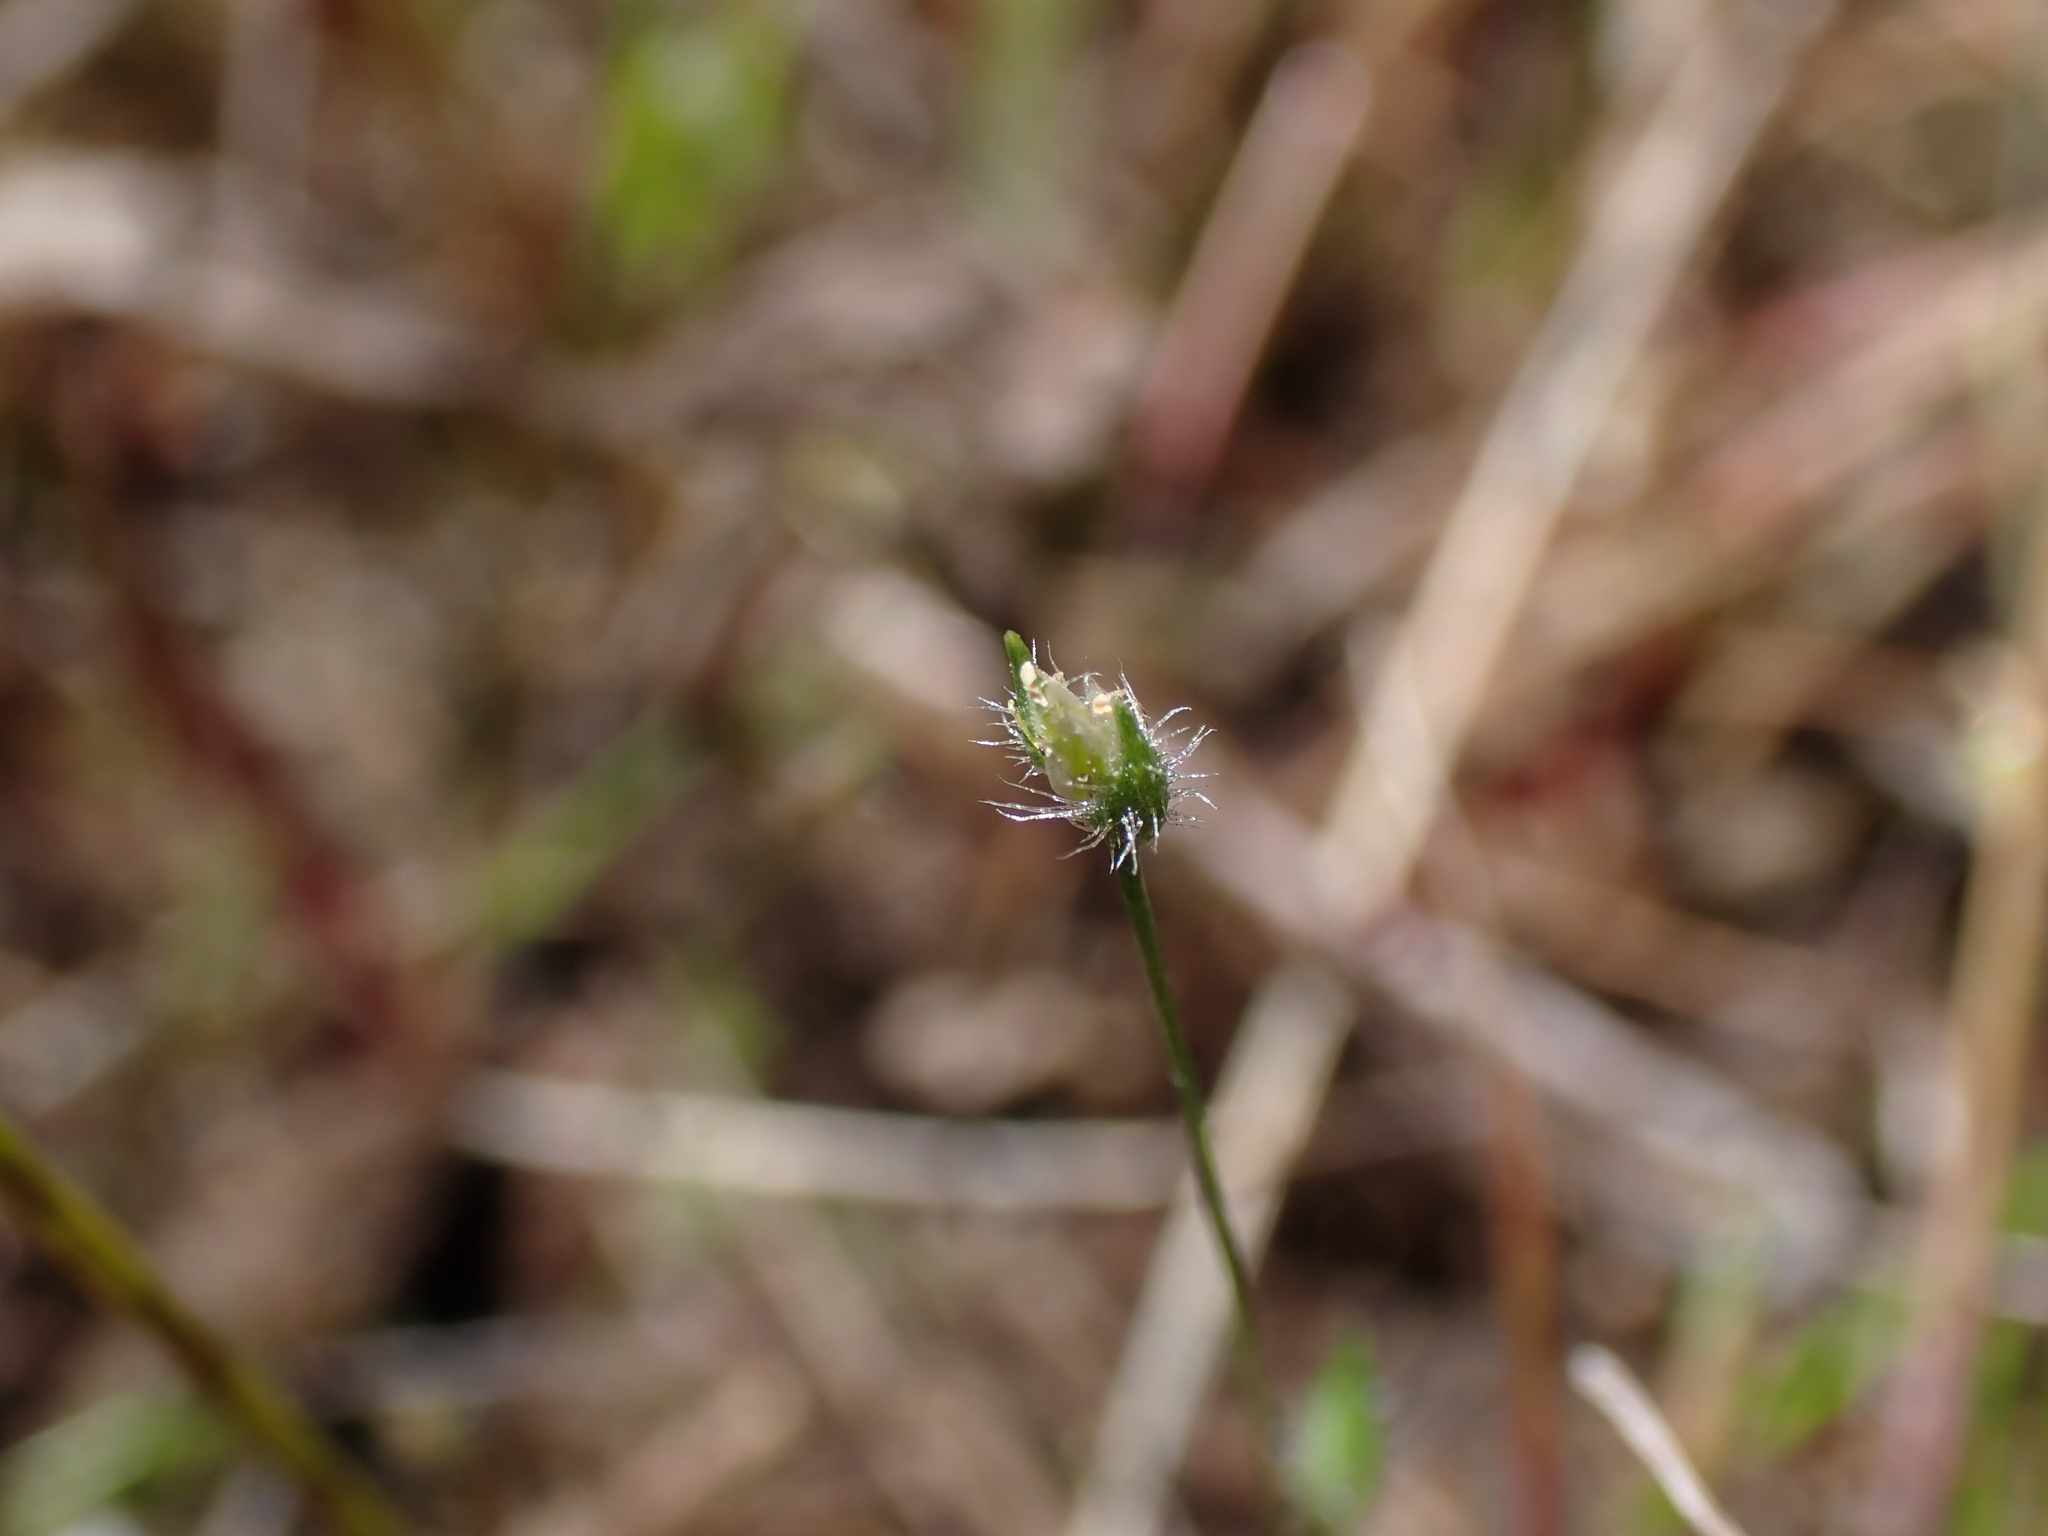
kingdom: Plantae
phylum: Tracheophyta
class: Liliopsida
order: Poales
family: Restionaceae
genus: Centrolepis
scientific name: Centrolepis strigosa
